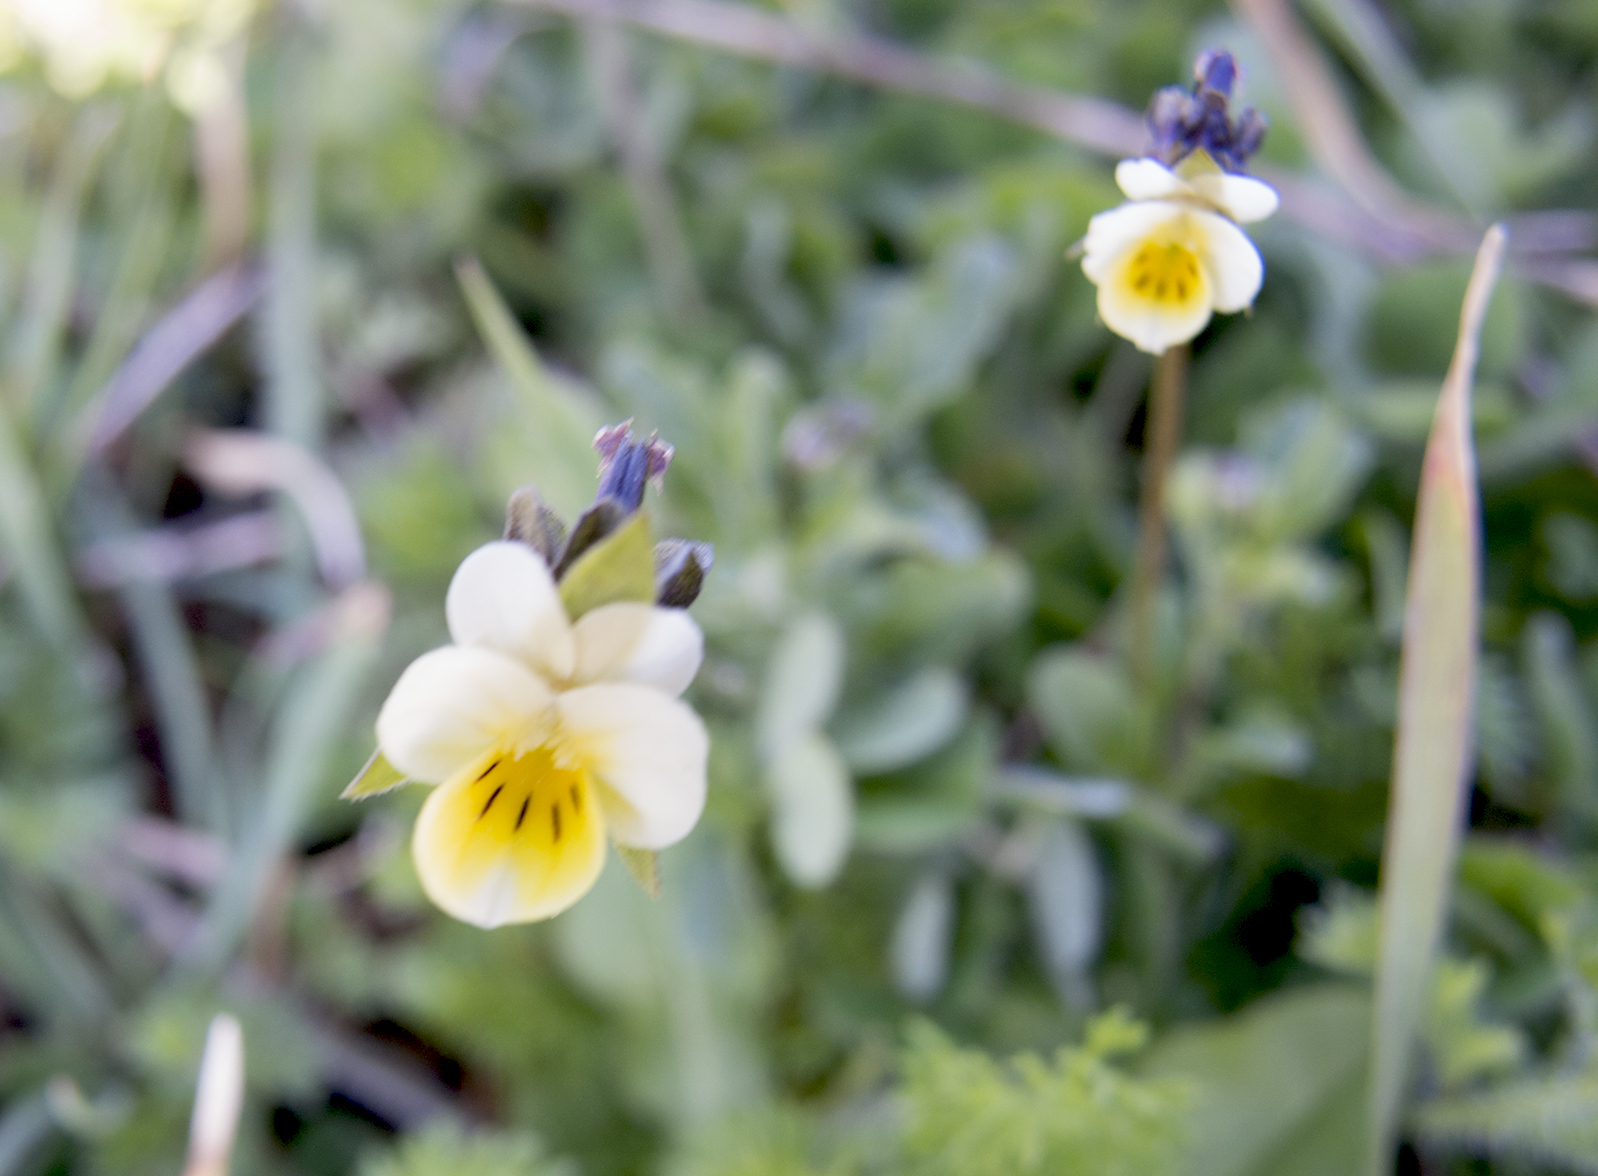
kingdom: Plantae
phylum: Tracheophyta
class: Magnoliopsida
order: Malpighiales
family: Violaceae
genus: Viola
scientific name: Viola kitaibeliana
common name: Dwarf pansy
